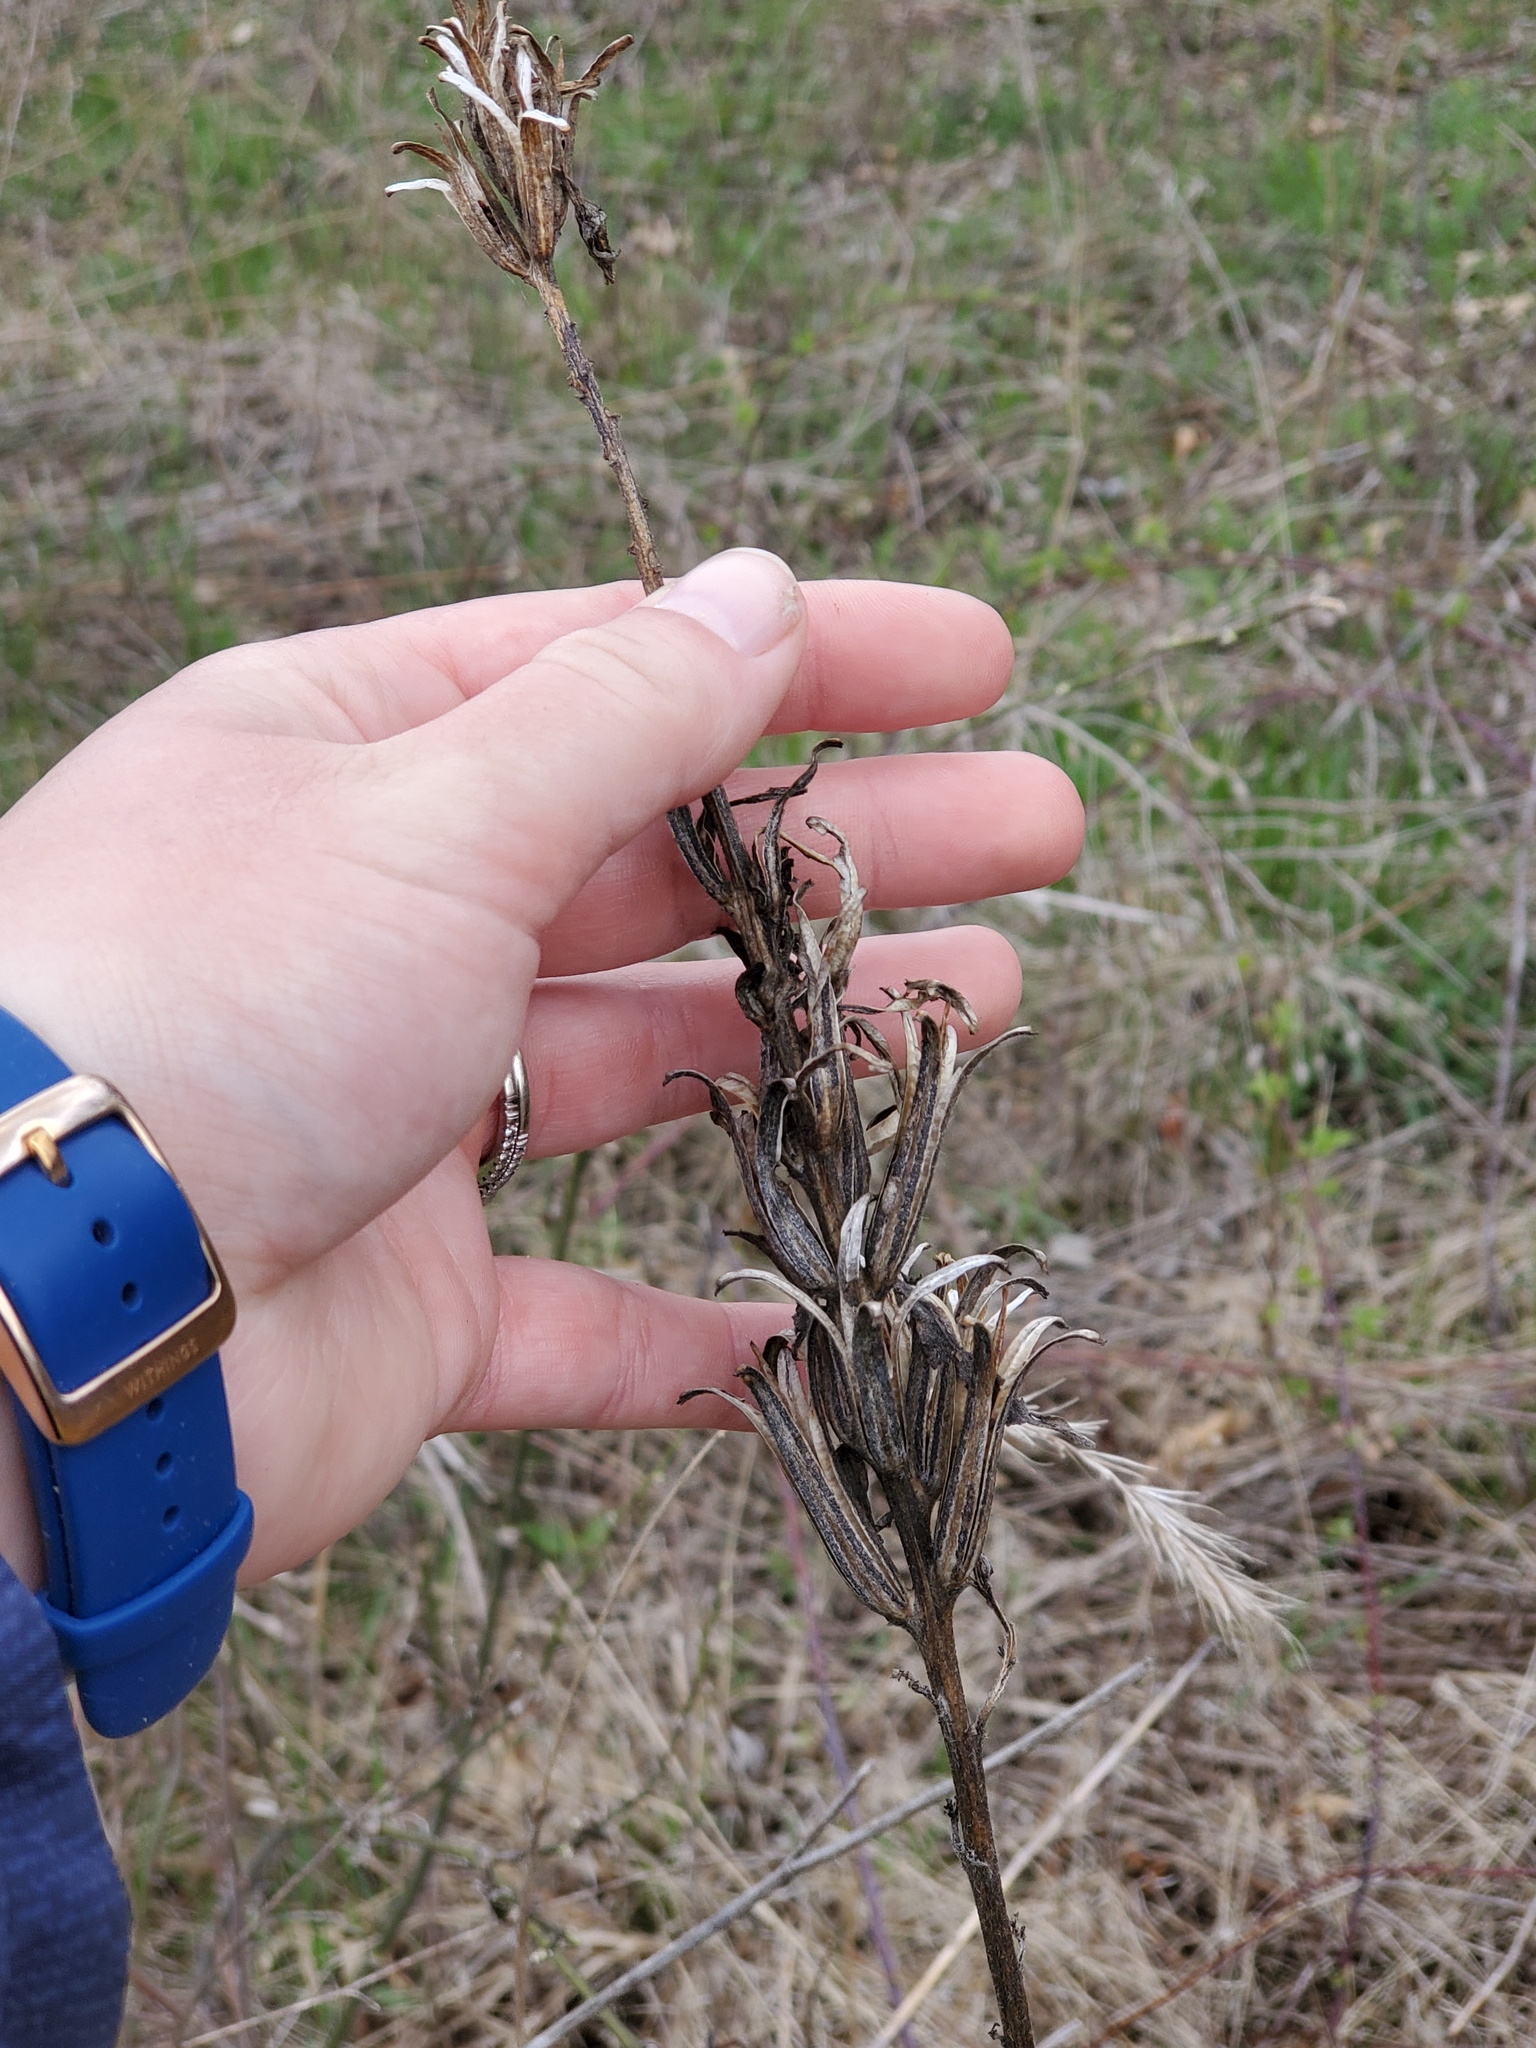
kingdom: Plantae
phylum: Tracheophyta
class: Magnoliopsida
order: Myrtales
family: Onagraceae
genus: Oenothera
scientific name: Oenothera biennis
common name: Common evening-primrose
